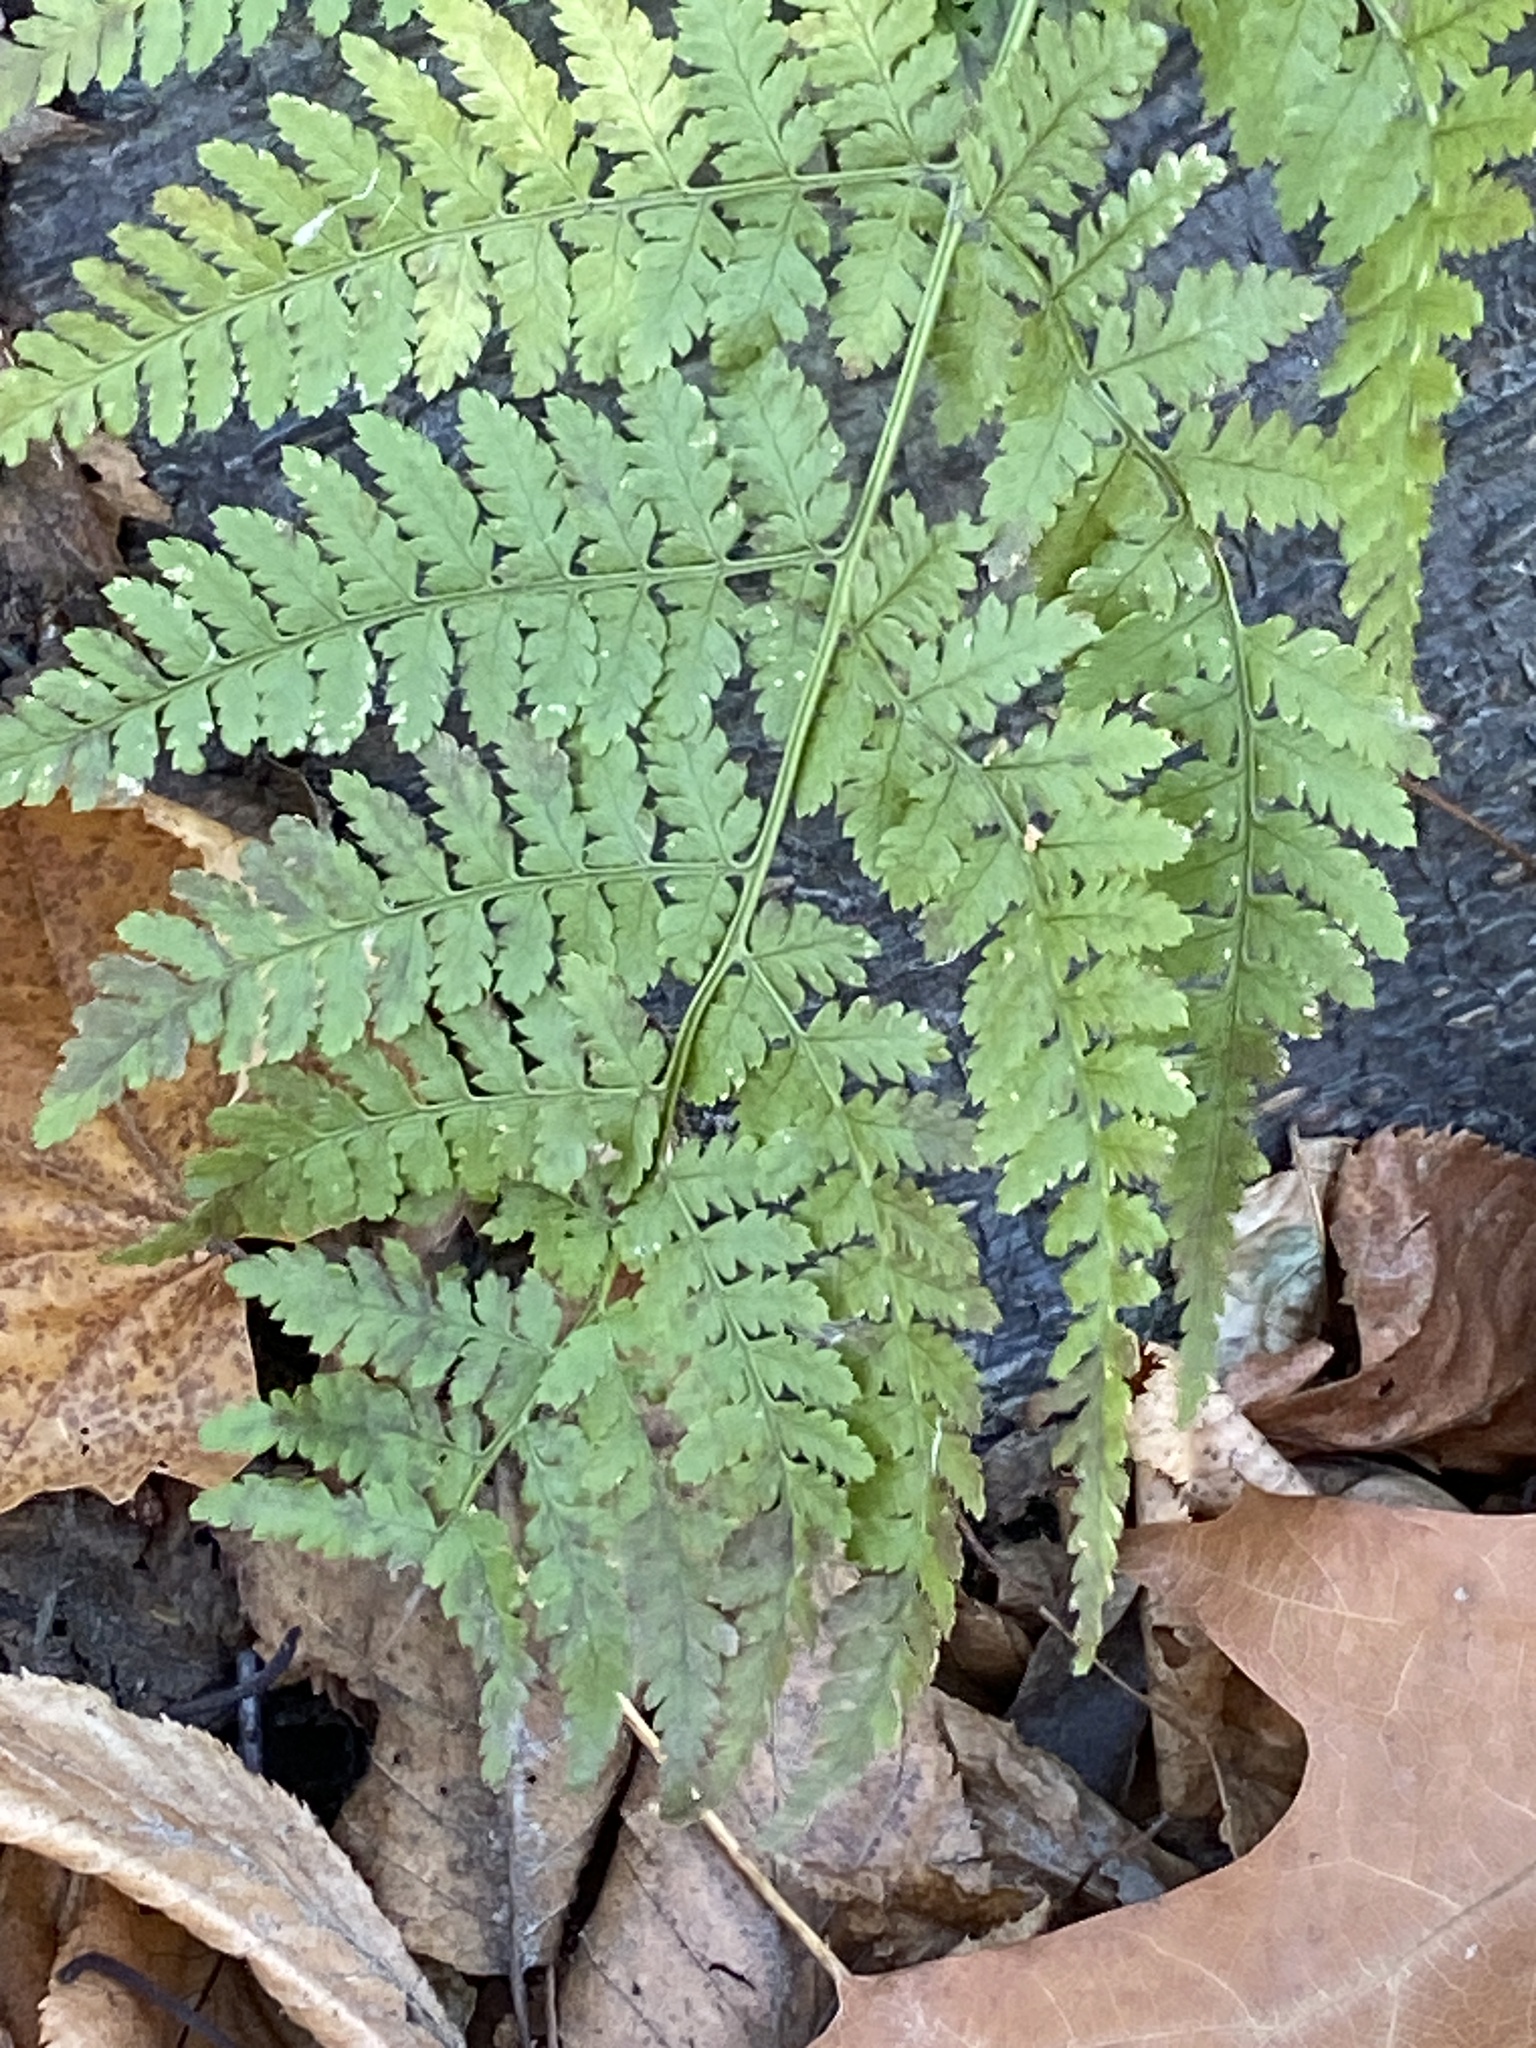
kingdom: Plantae
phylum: Tracheophyta
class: Polypodiopsida
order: Polypodiales
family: Dryopteridaceae
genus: Dryopteris
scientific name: Dryopteris intermedia
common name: Evergreen wood fern
